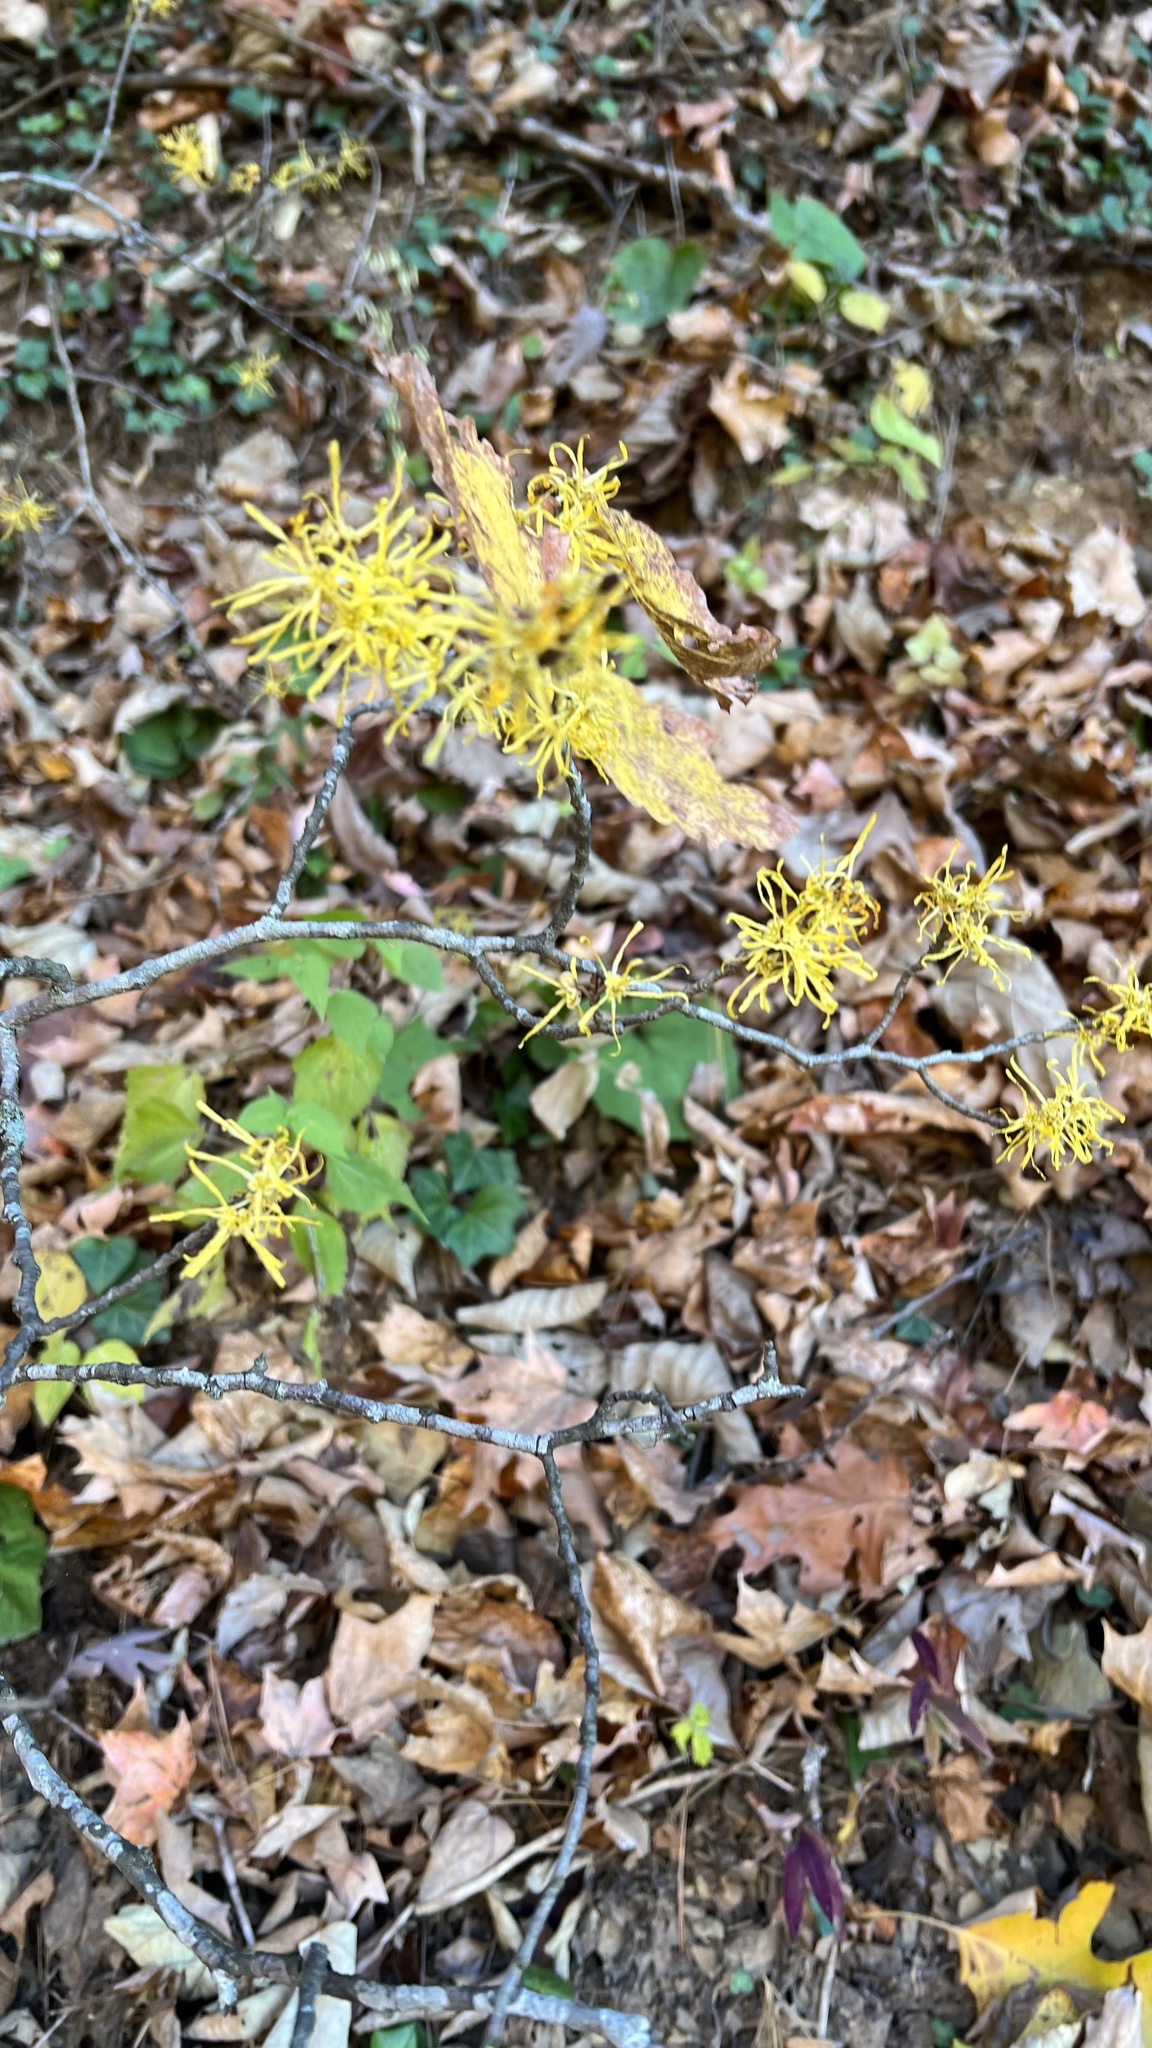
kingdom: Plantae
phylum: Tracheophyta
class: Magnoliopsida
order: Saxifragales
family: Hamamelidaceae
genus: Hamamelis
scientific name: Hamamelis virginiana
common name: Witch-hazel
